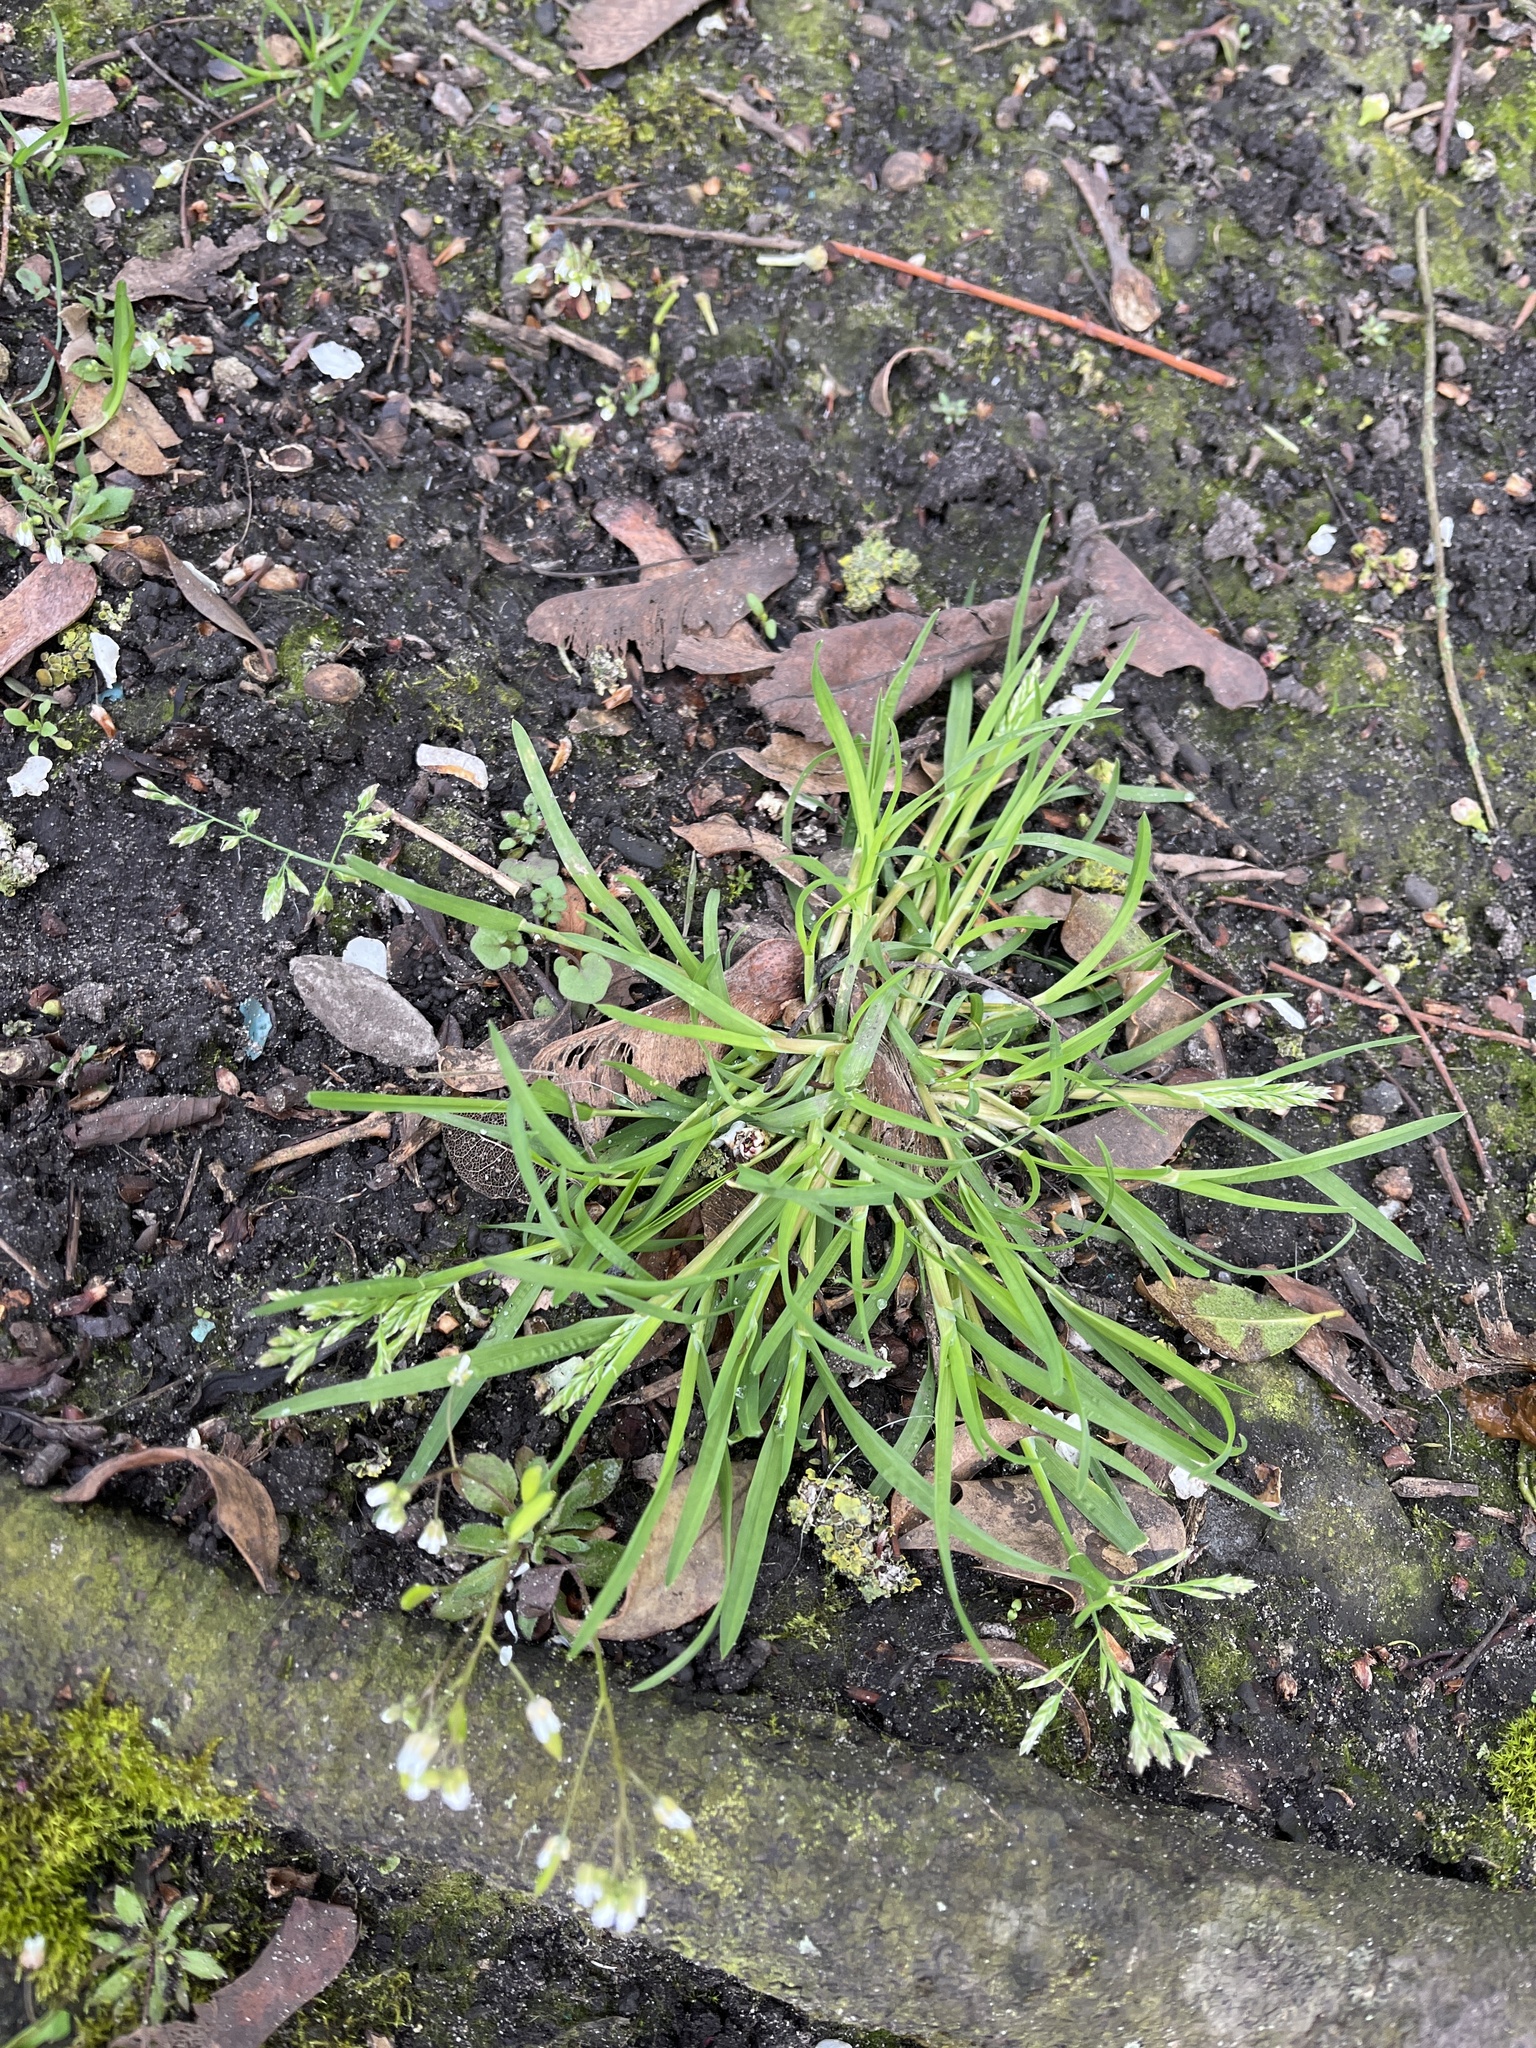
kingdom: Plantae
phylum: Tracheophyta
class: Liliopsida
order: Poales
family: Poaceae
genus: Poa
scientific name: Poa annua
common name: Annual bluegrass
